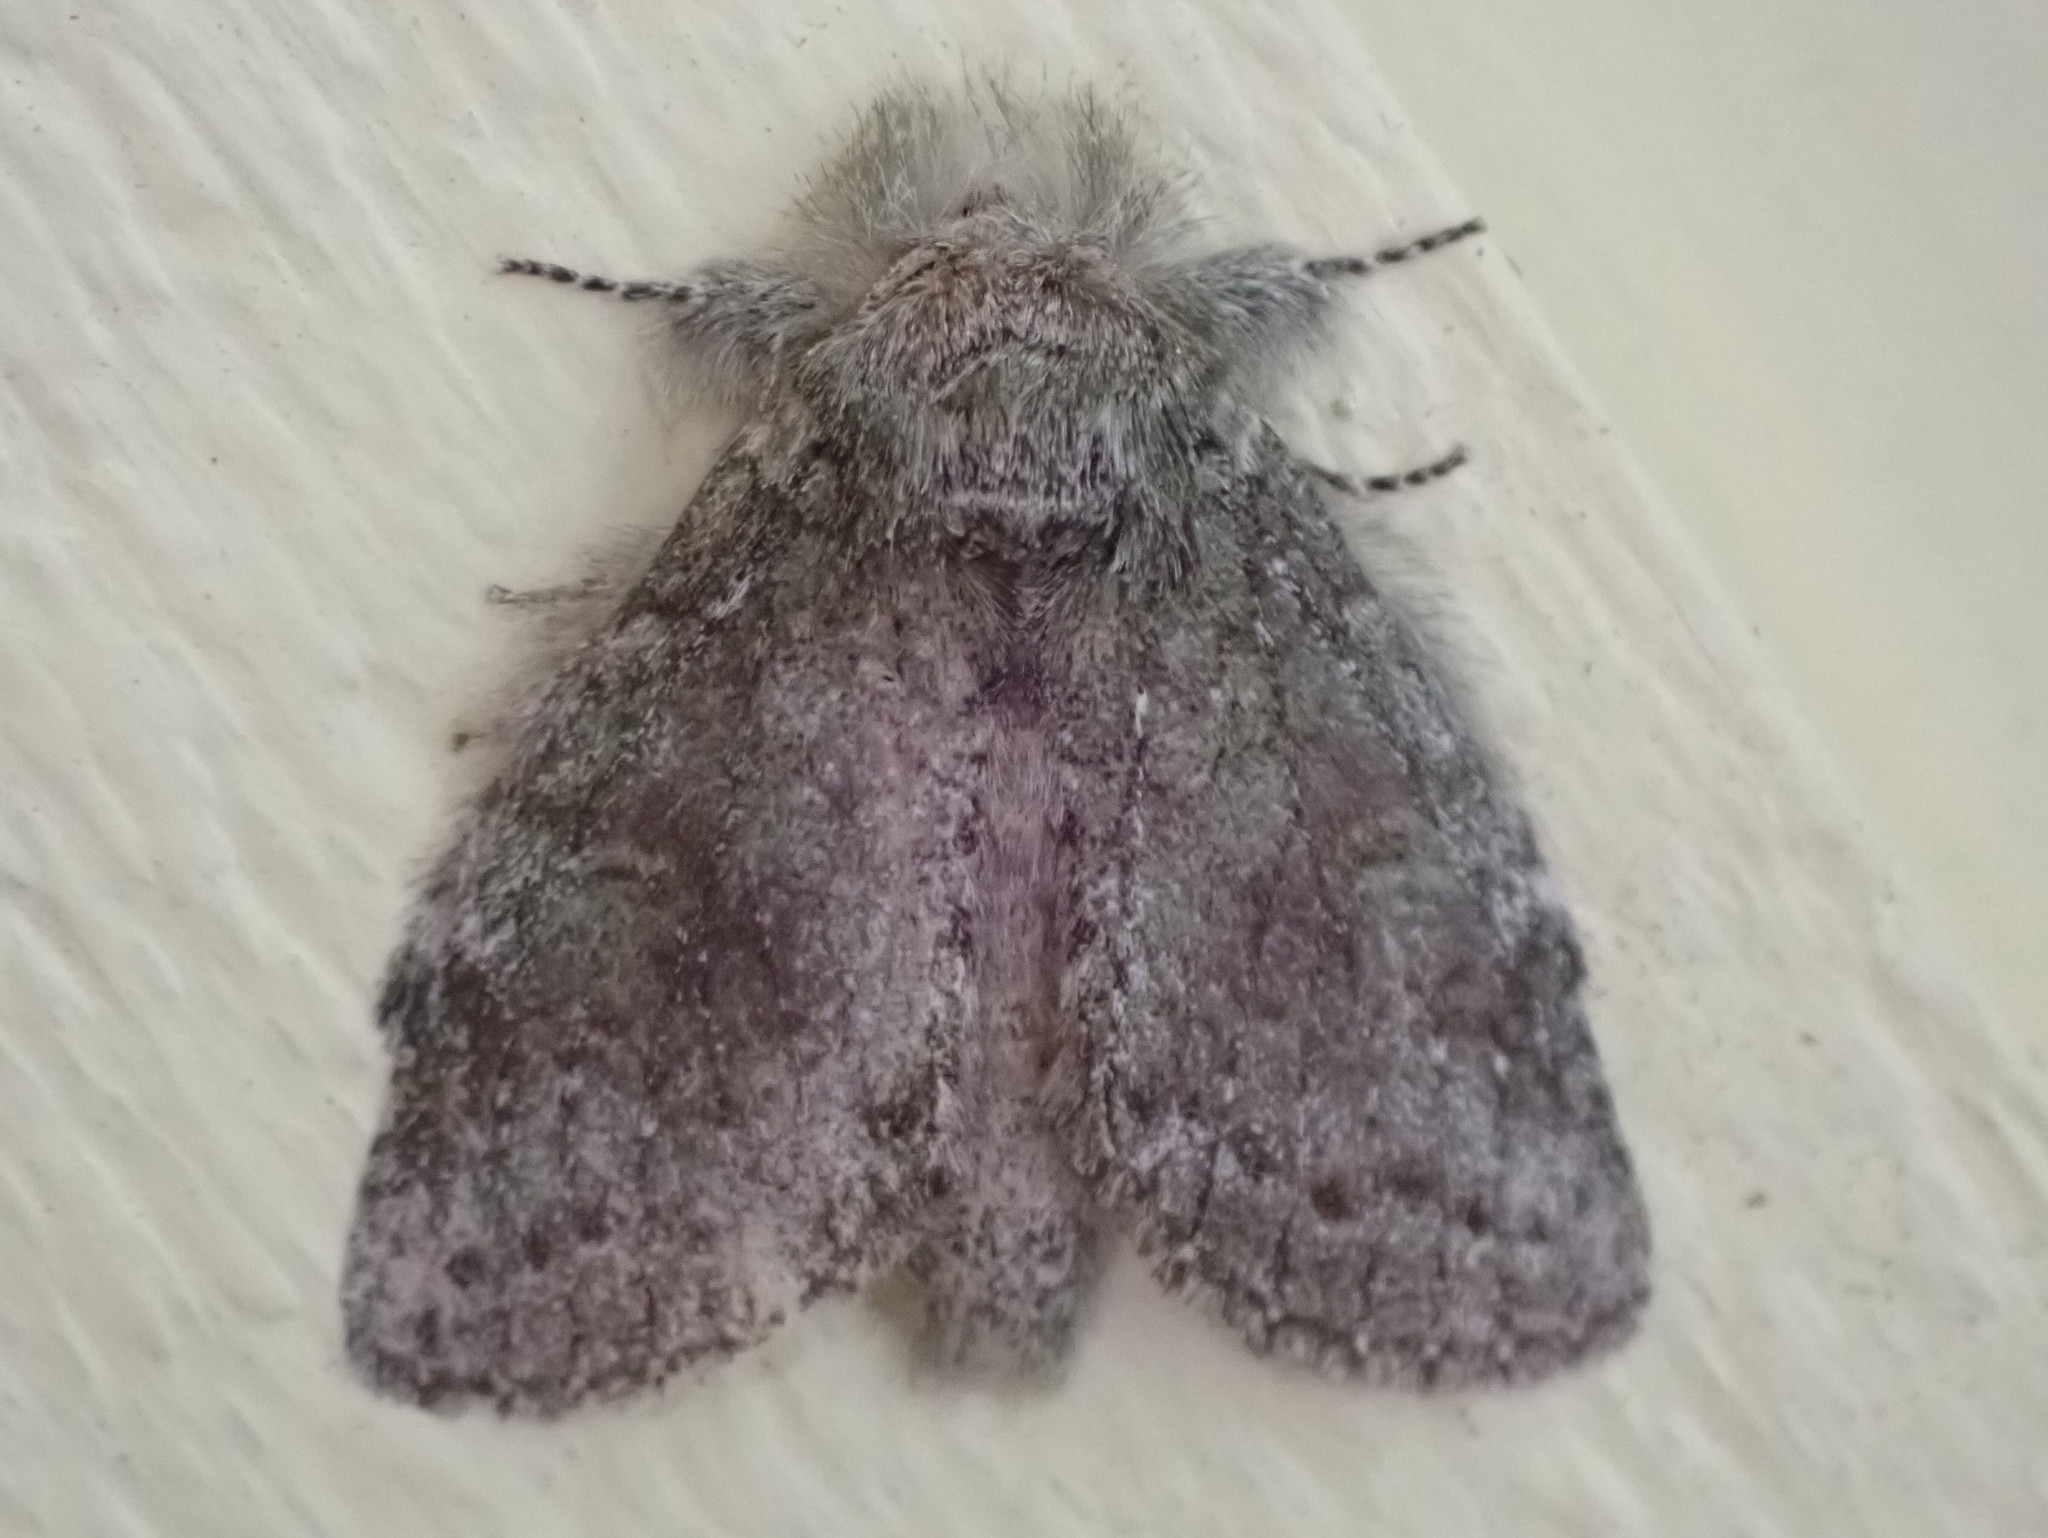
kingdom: Animalia
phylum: Arthropoda
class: Insecta
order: Lepidoptera
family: Notodontidae
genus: Disphragis
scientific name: Disphragis Cecrita guttivitta
